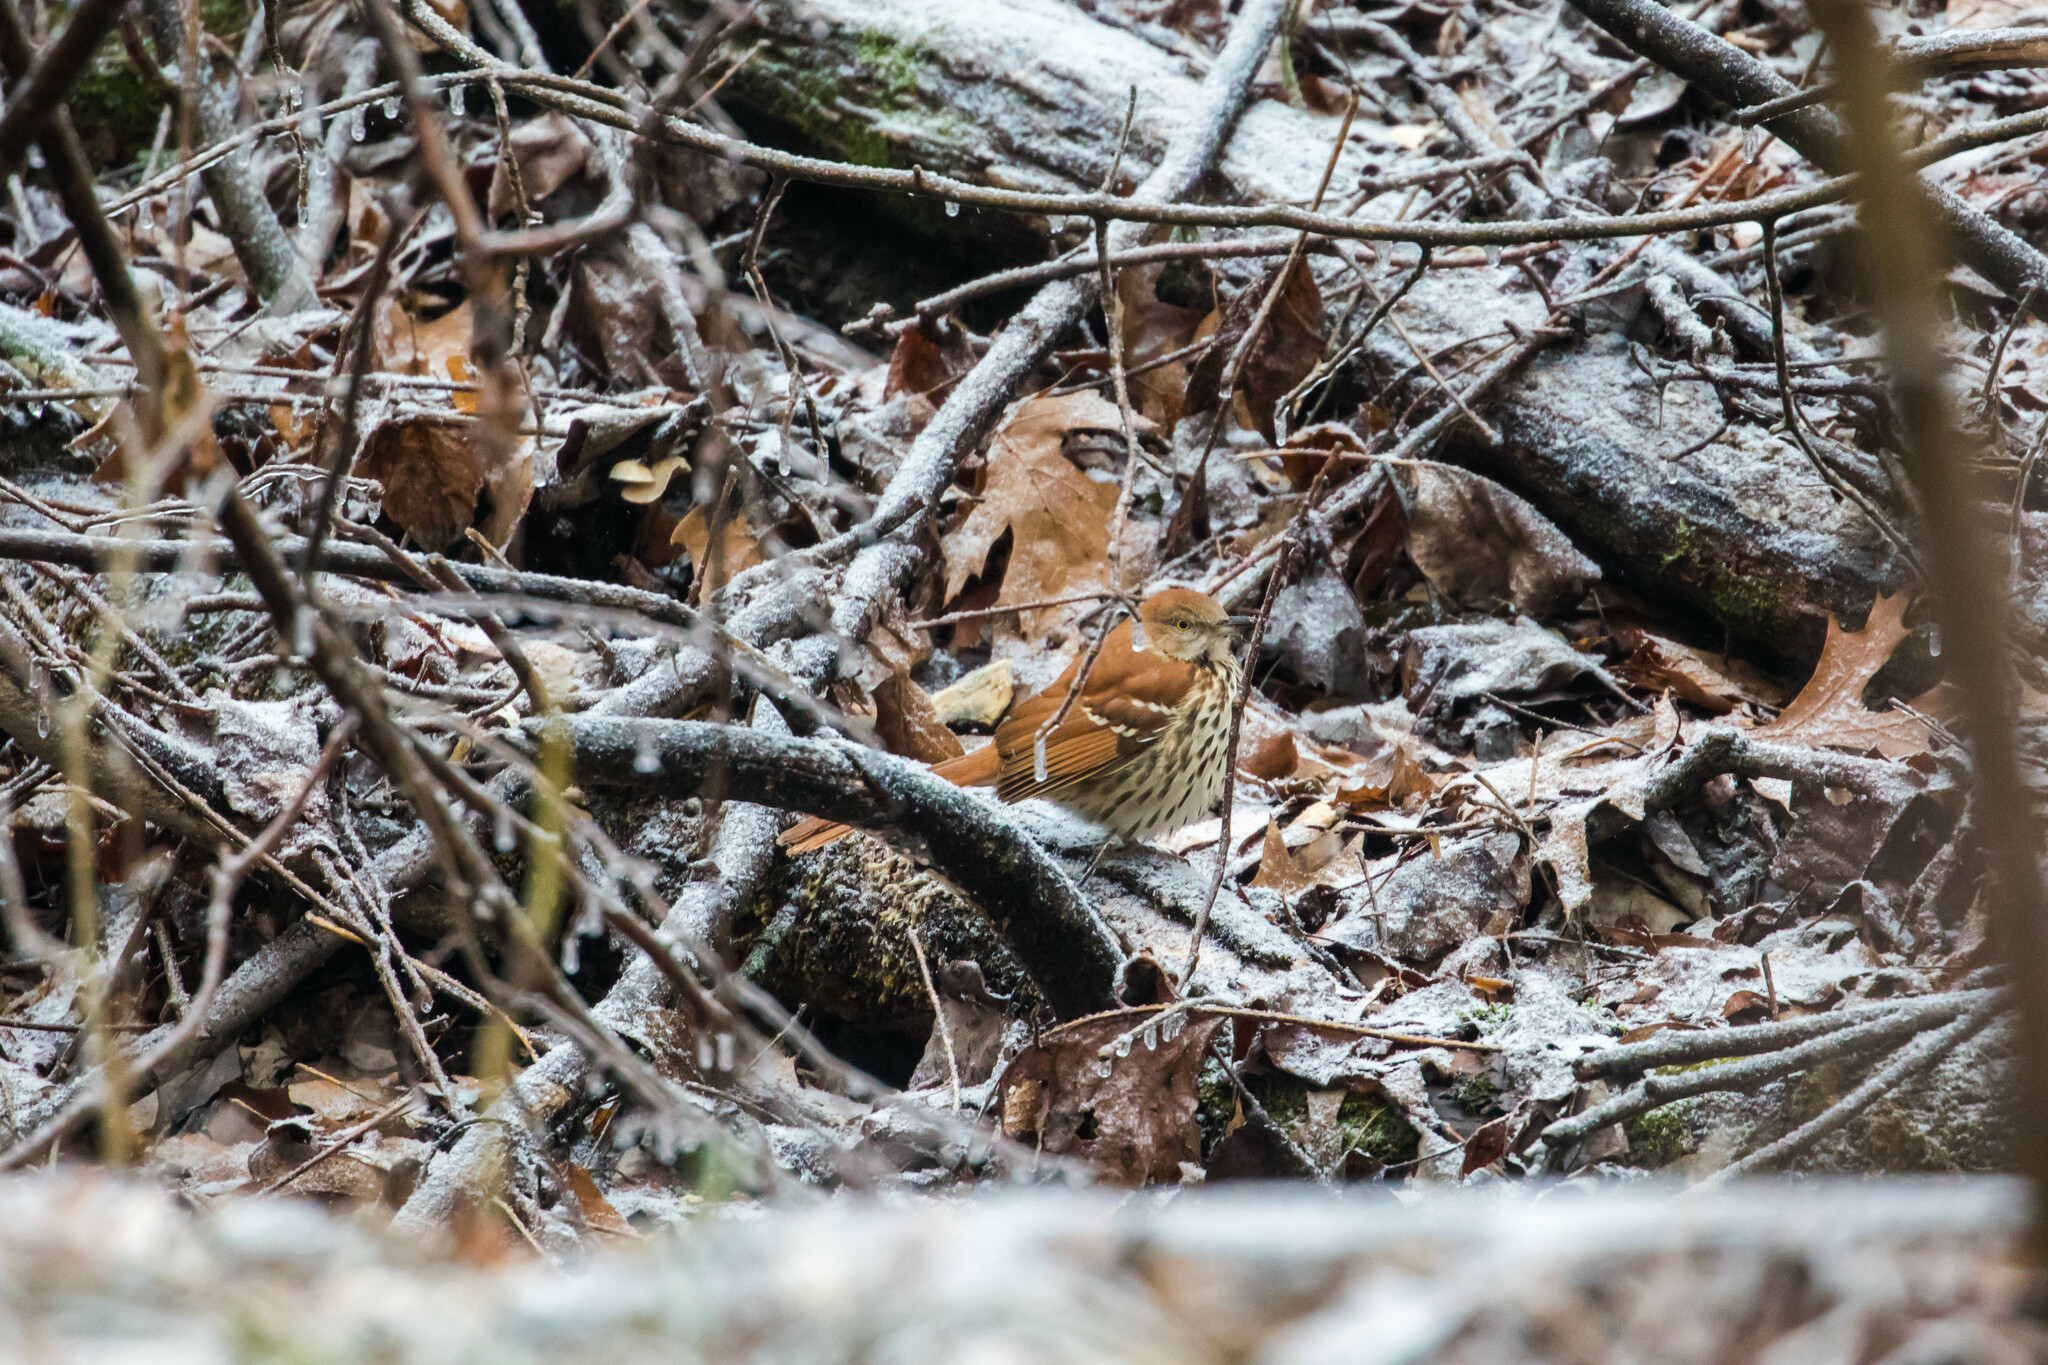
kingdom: Animalia
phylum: Chordata
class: Aves
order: Passeriformes
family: Mimidae
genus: Toxostoma
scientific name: Toxostoma rufum
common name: Brown thrasher
